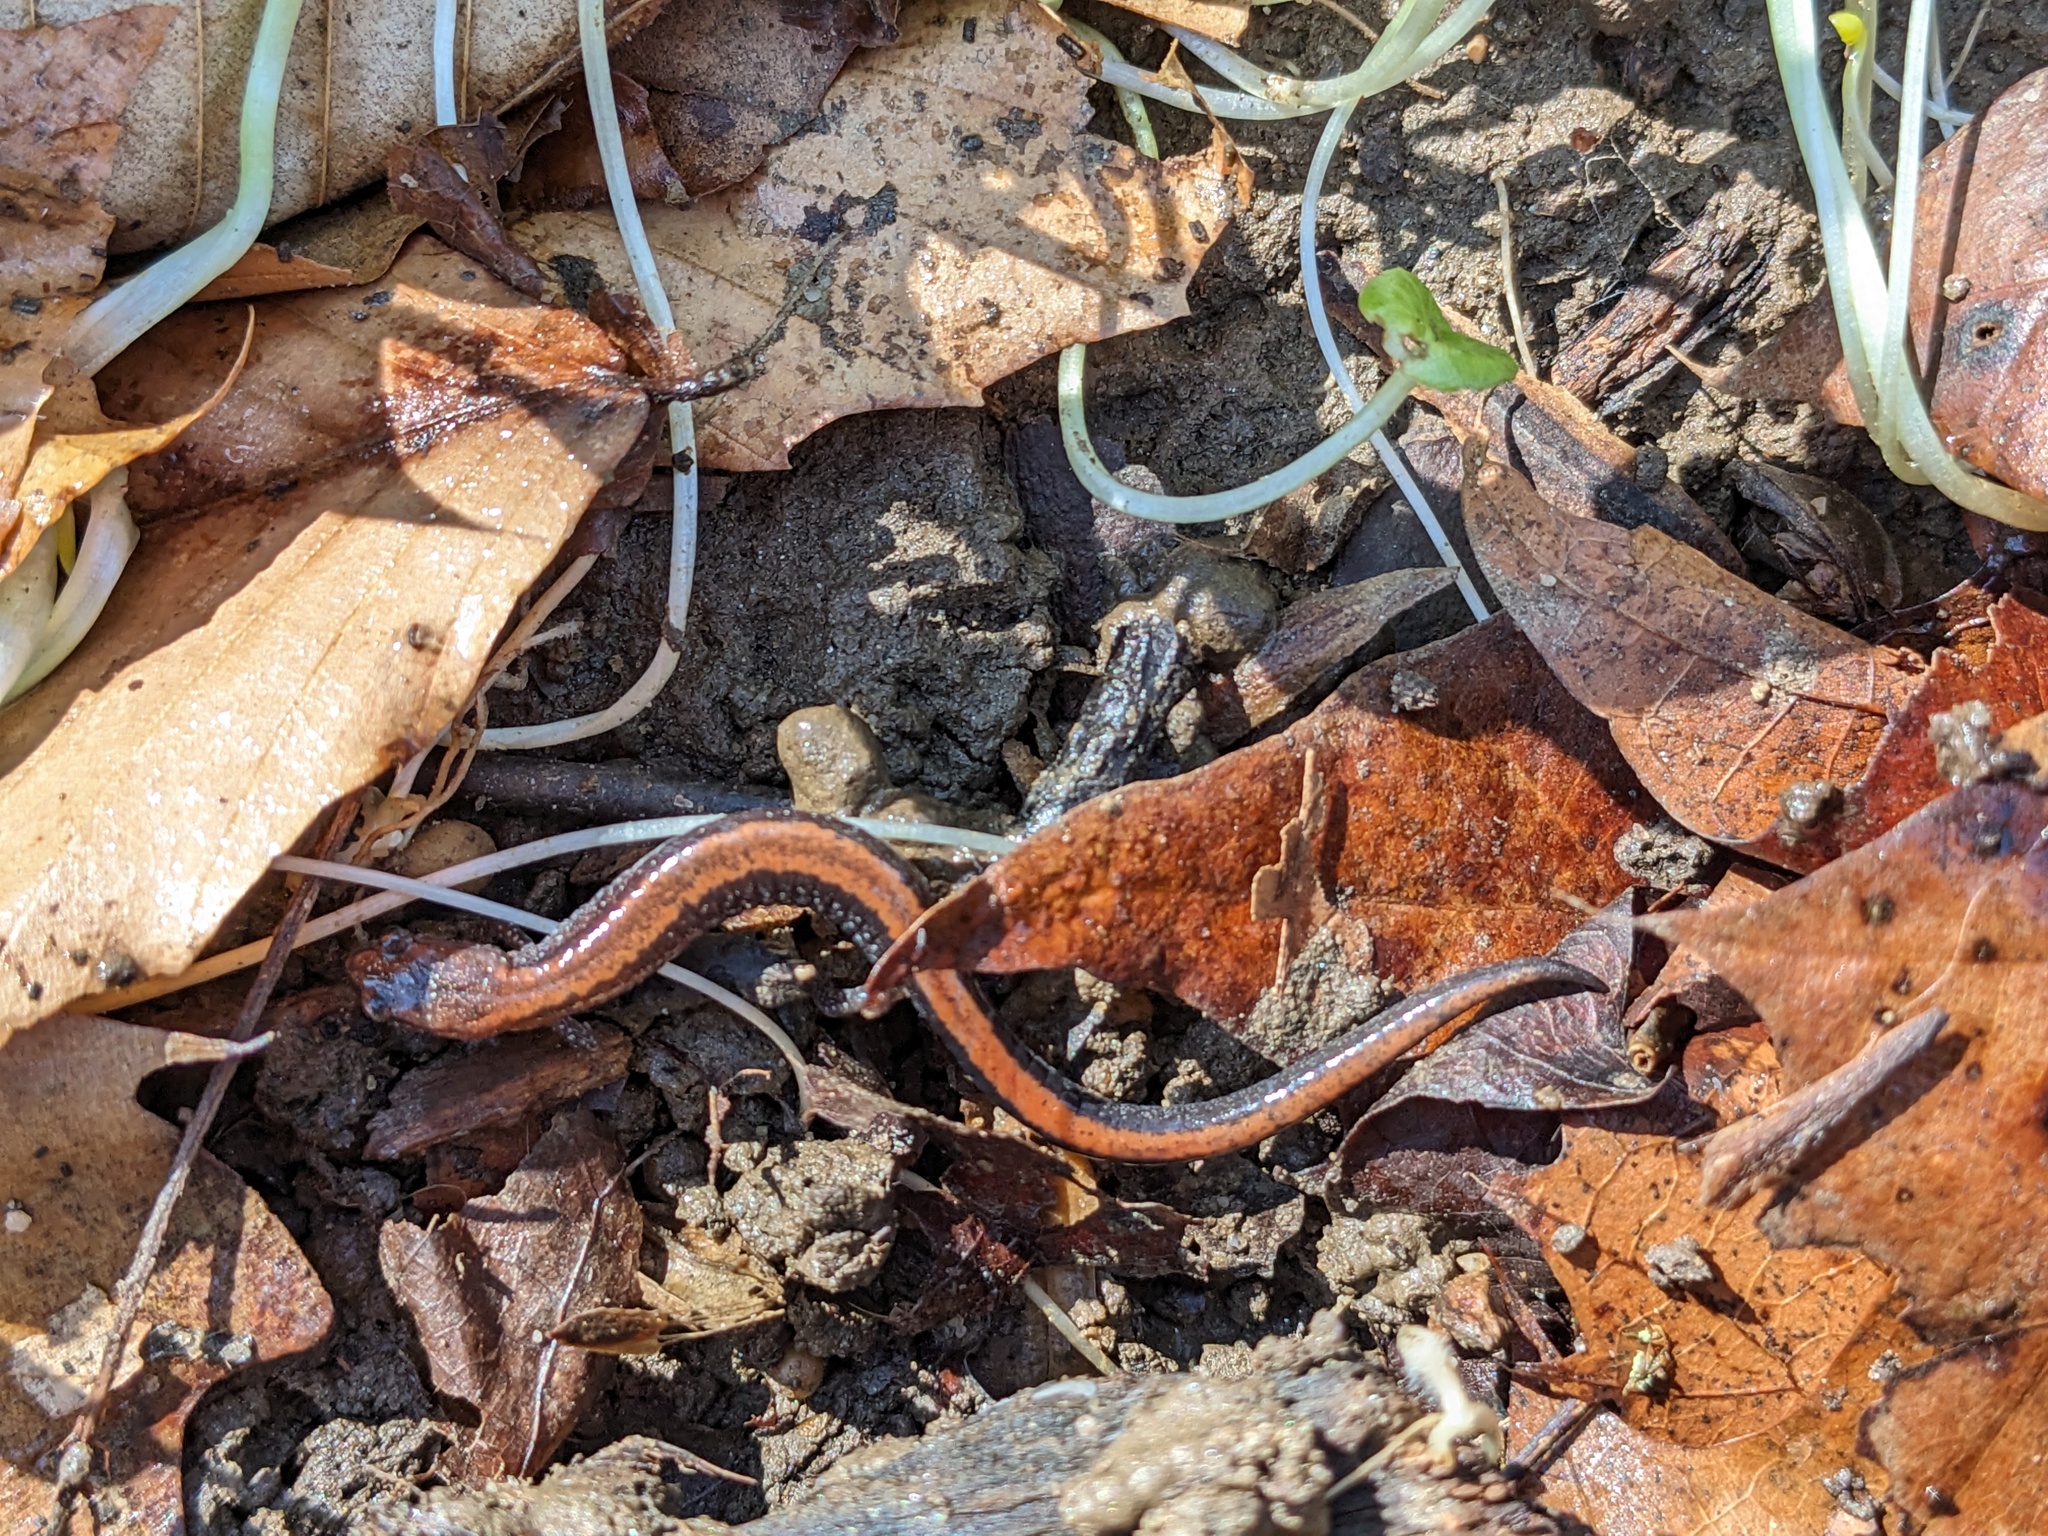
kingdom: Animalia
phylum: Chordata
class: Amphibia
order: Caudata
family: Plethodontidae
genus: Plethodon
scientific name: Plethodon cinereus
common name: Redback salamander
